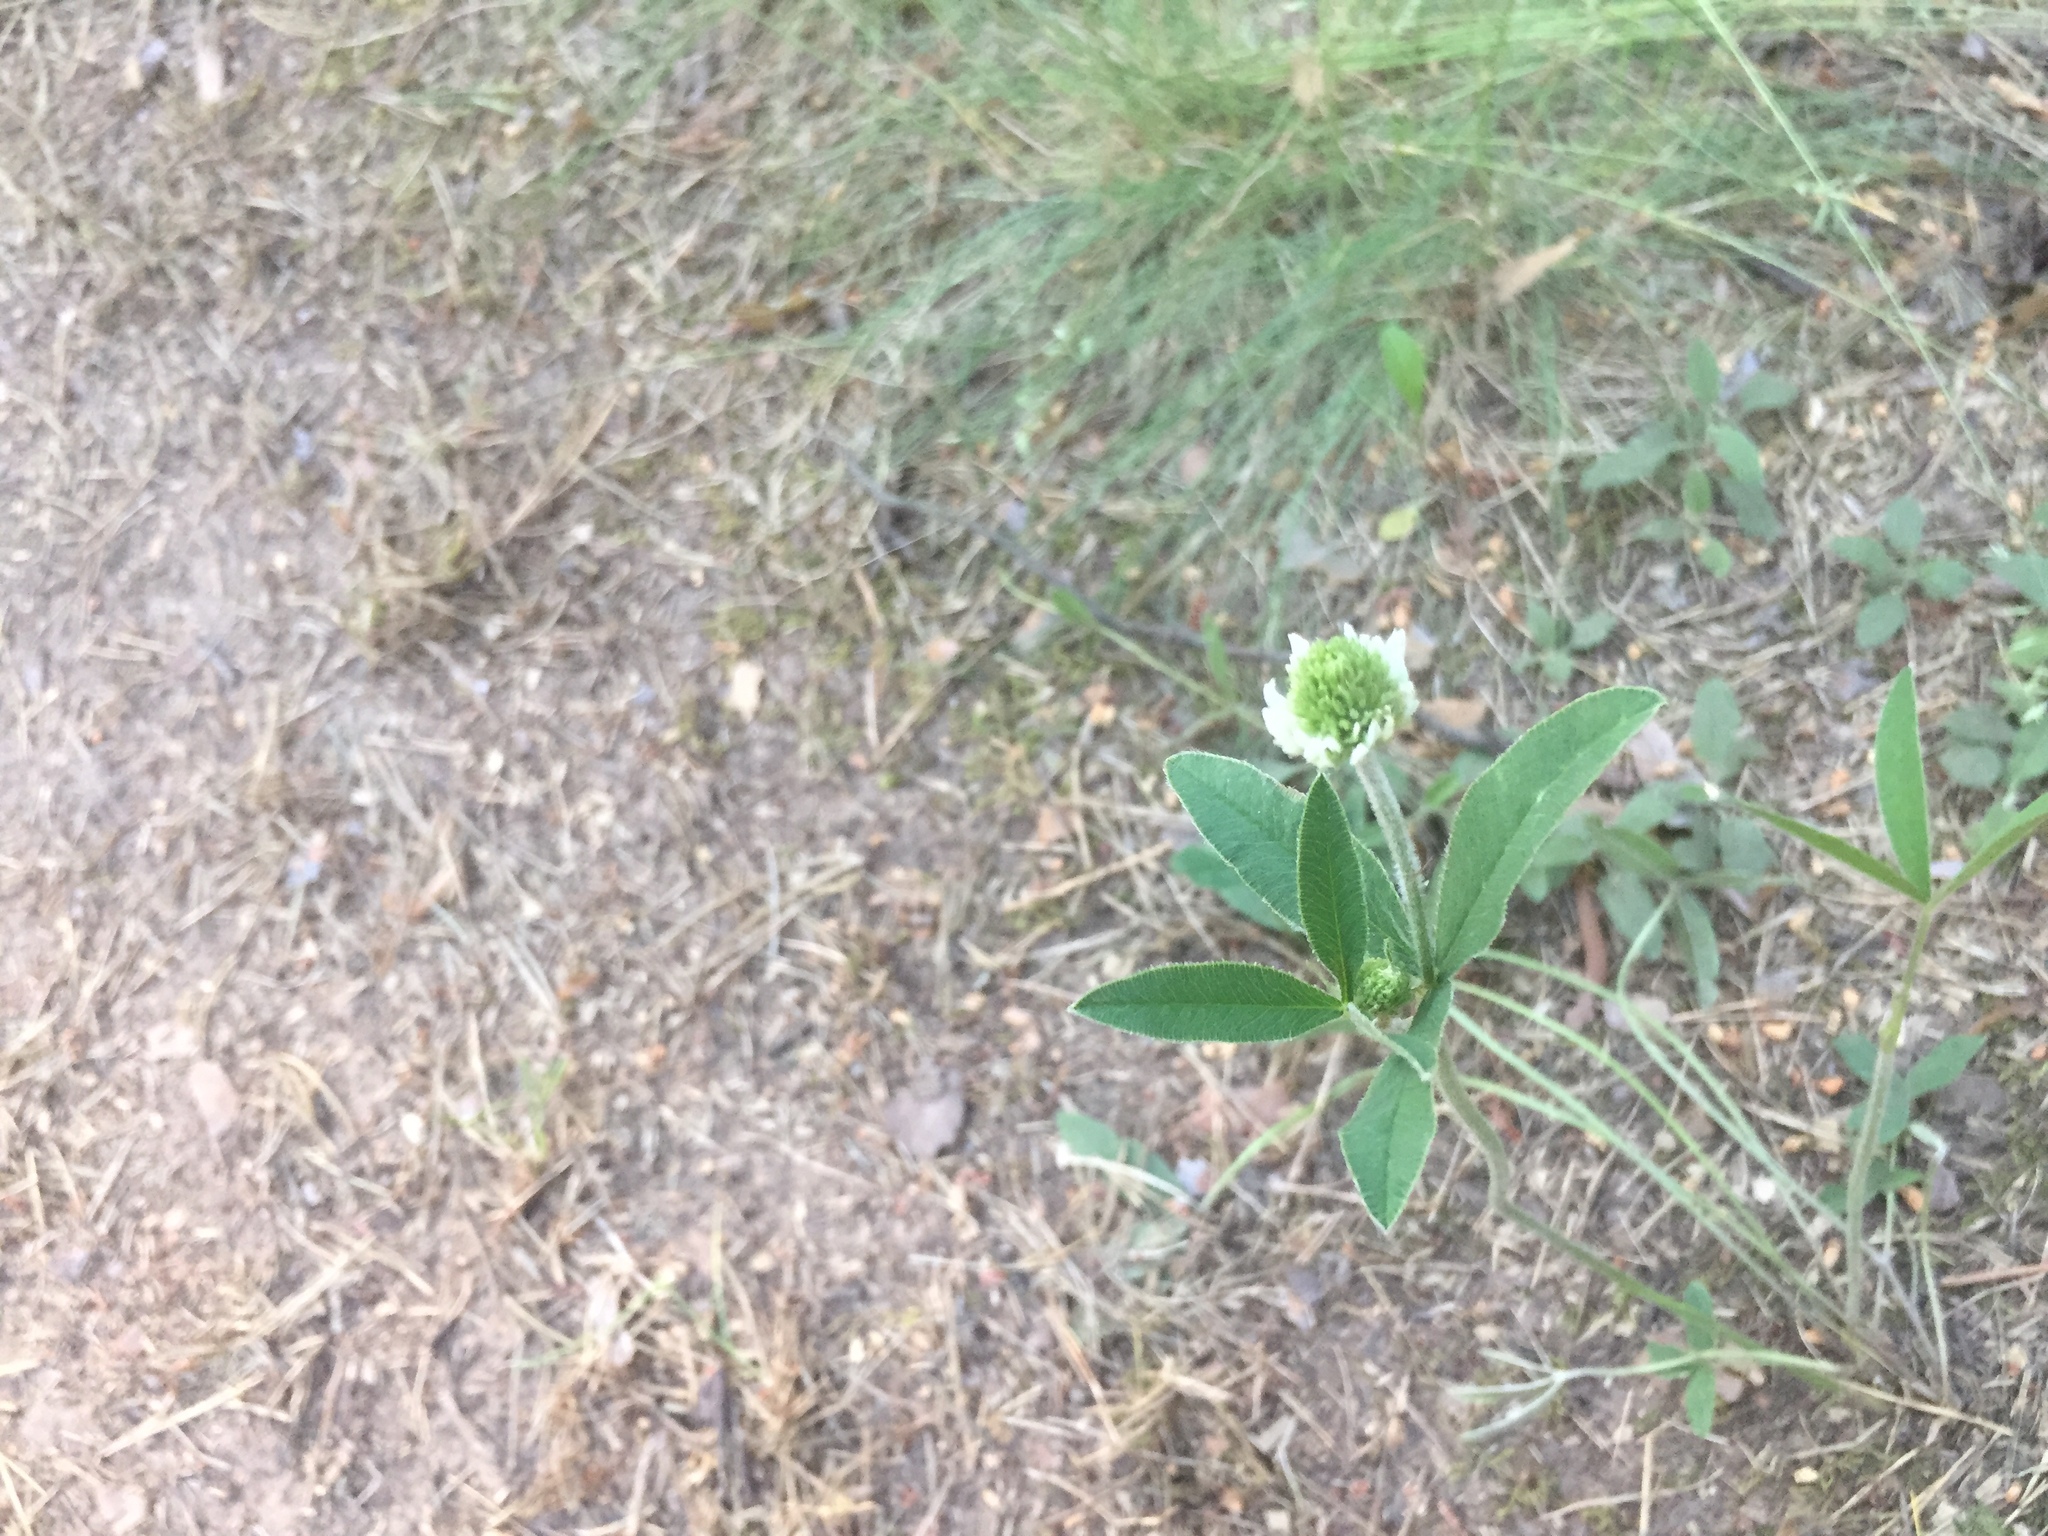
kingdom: Plantae
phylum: Tracheophyta
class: Magnoliopsida
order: Fabales
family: Fabaceae
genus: Trifolium
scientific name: Trifolium montanum
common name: Mountain clover
